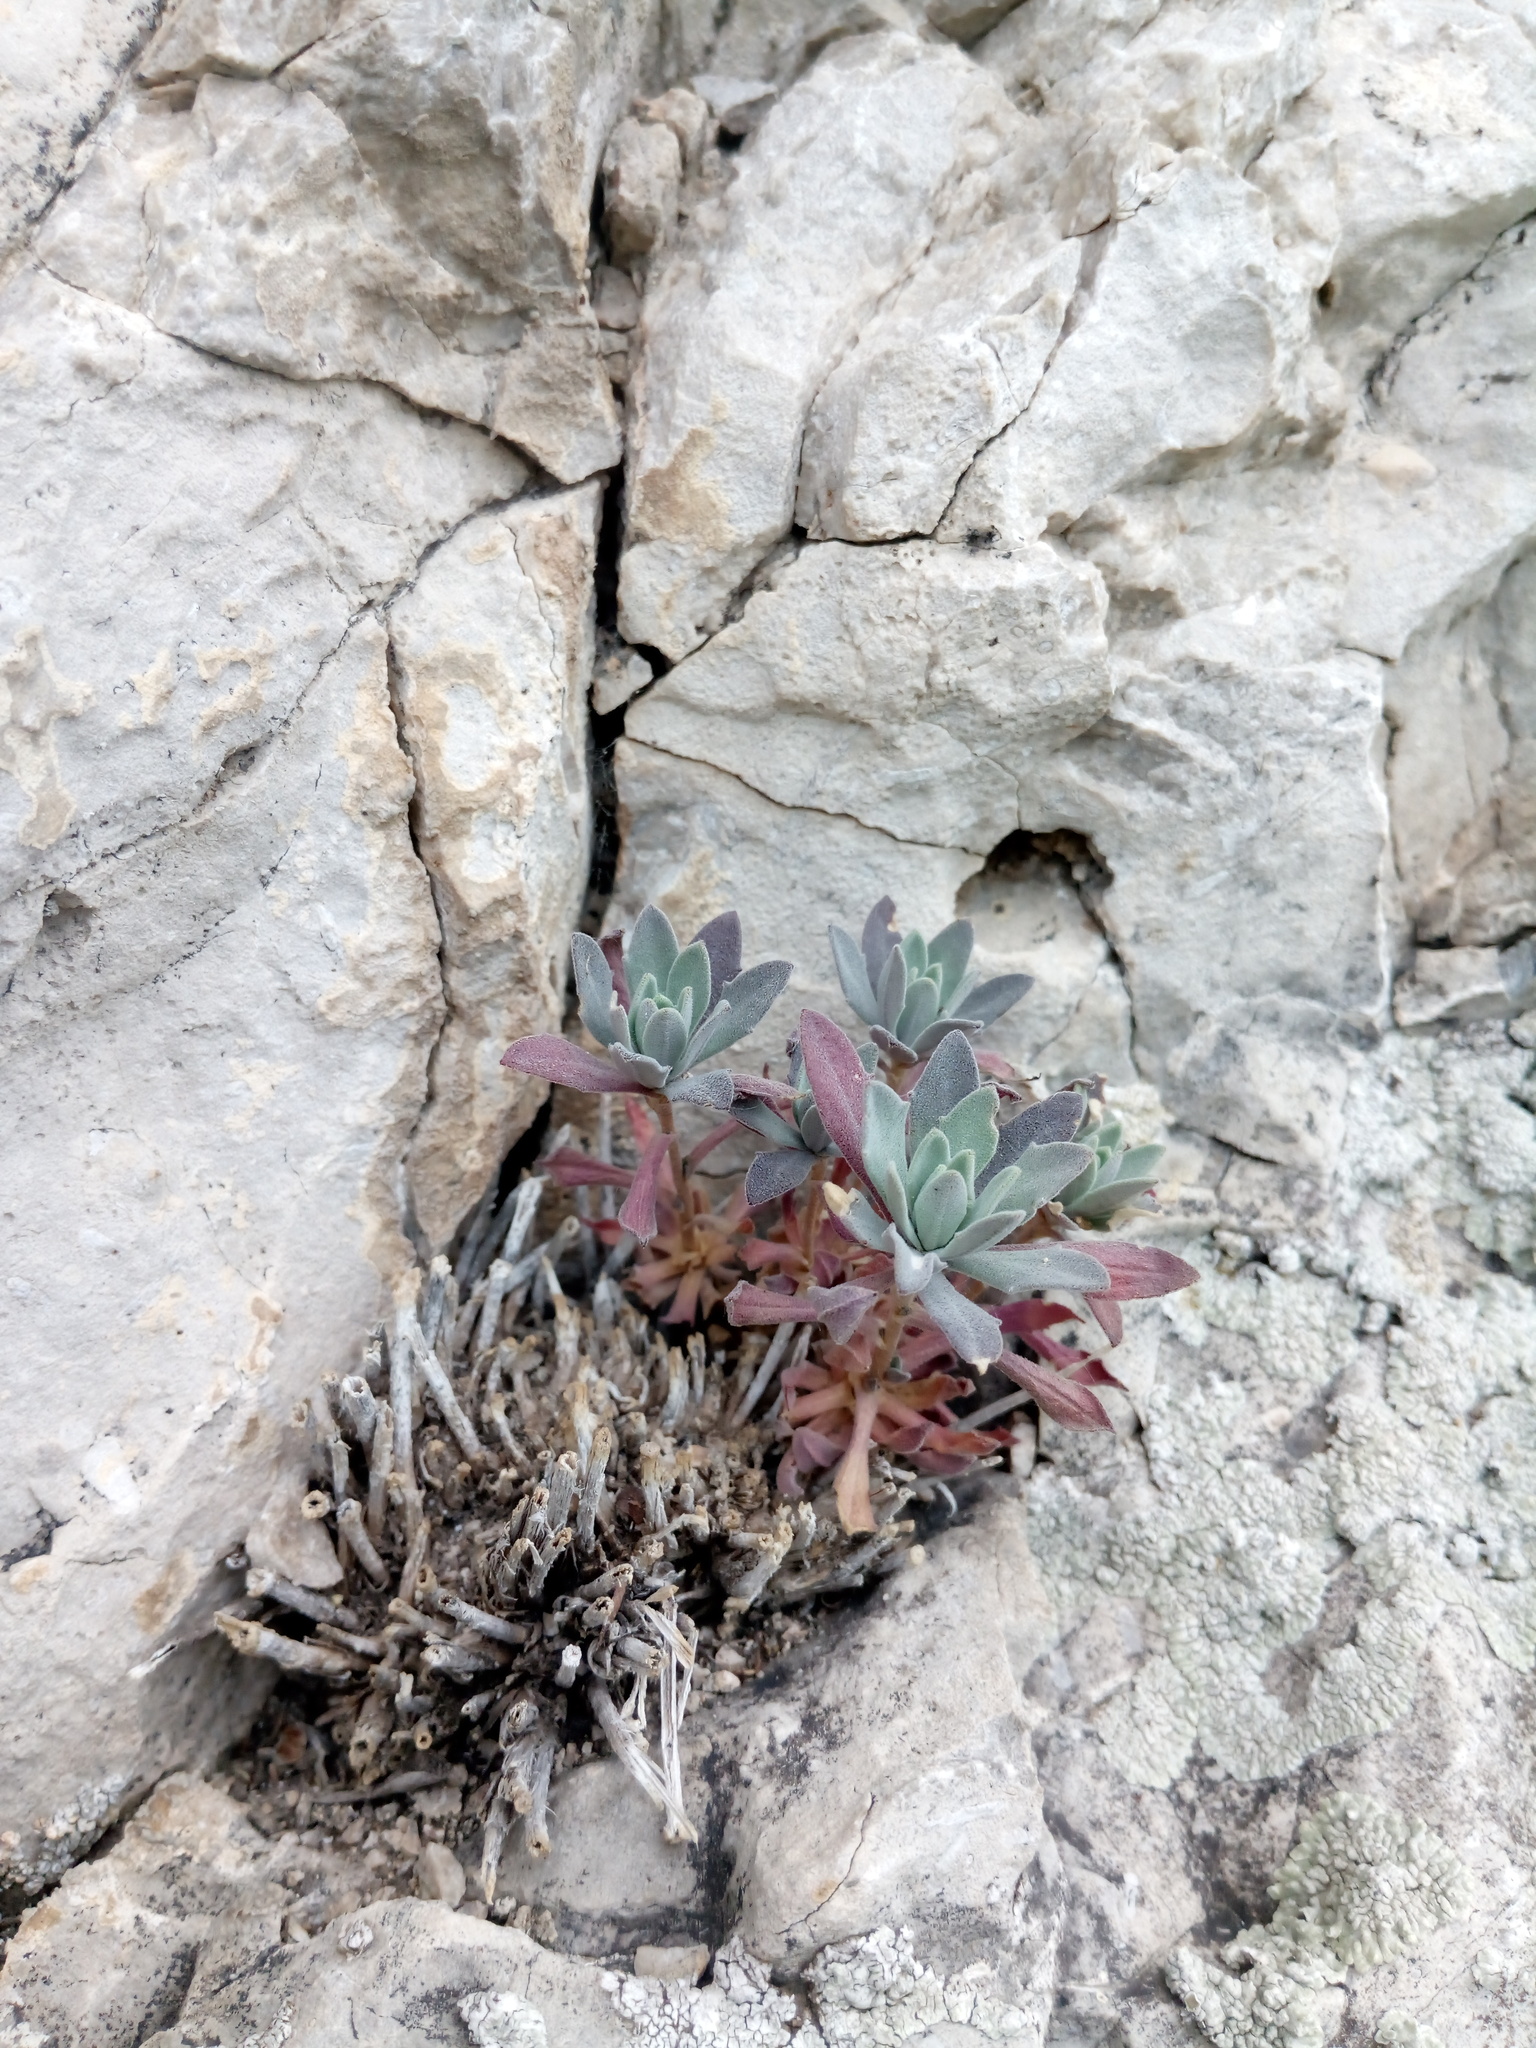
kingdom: Plantae
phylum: Tracheophyta
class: Magnoliopsida
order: Brassicales
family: Brassicaceae
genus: Draba
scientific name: Draba hyperborea
